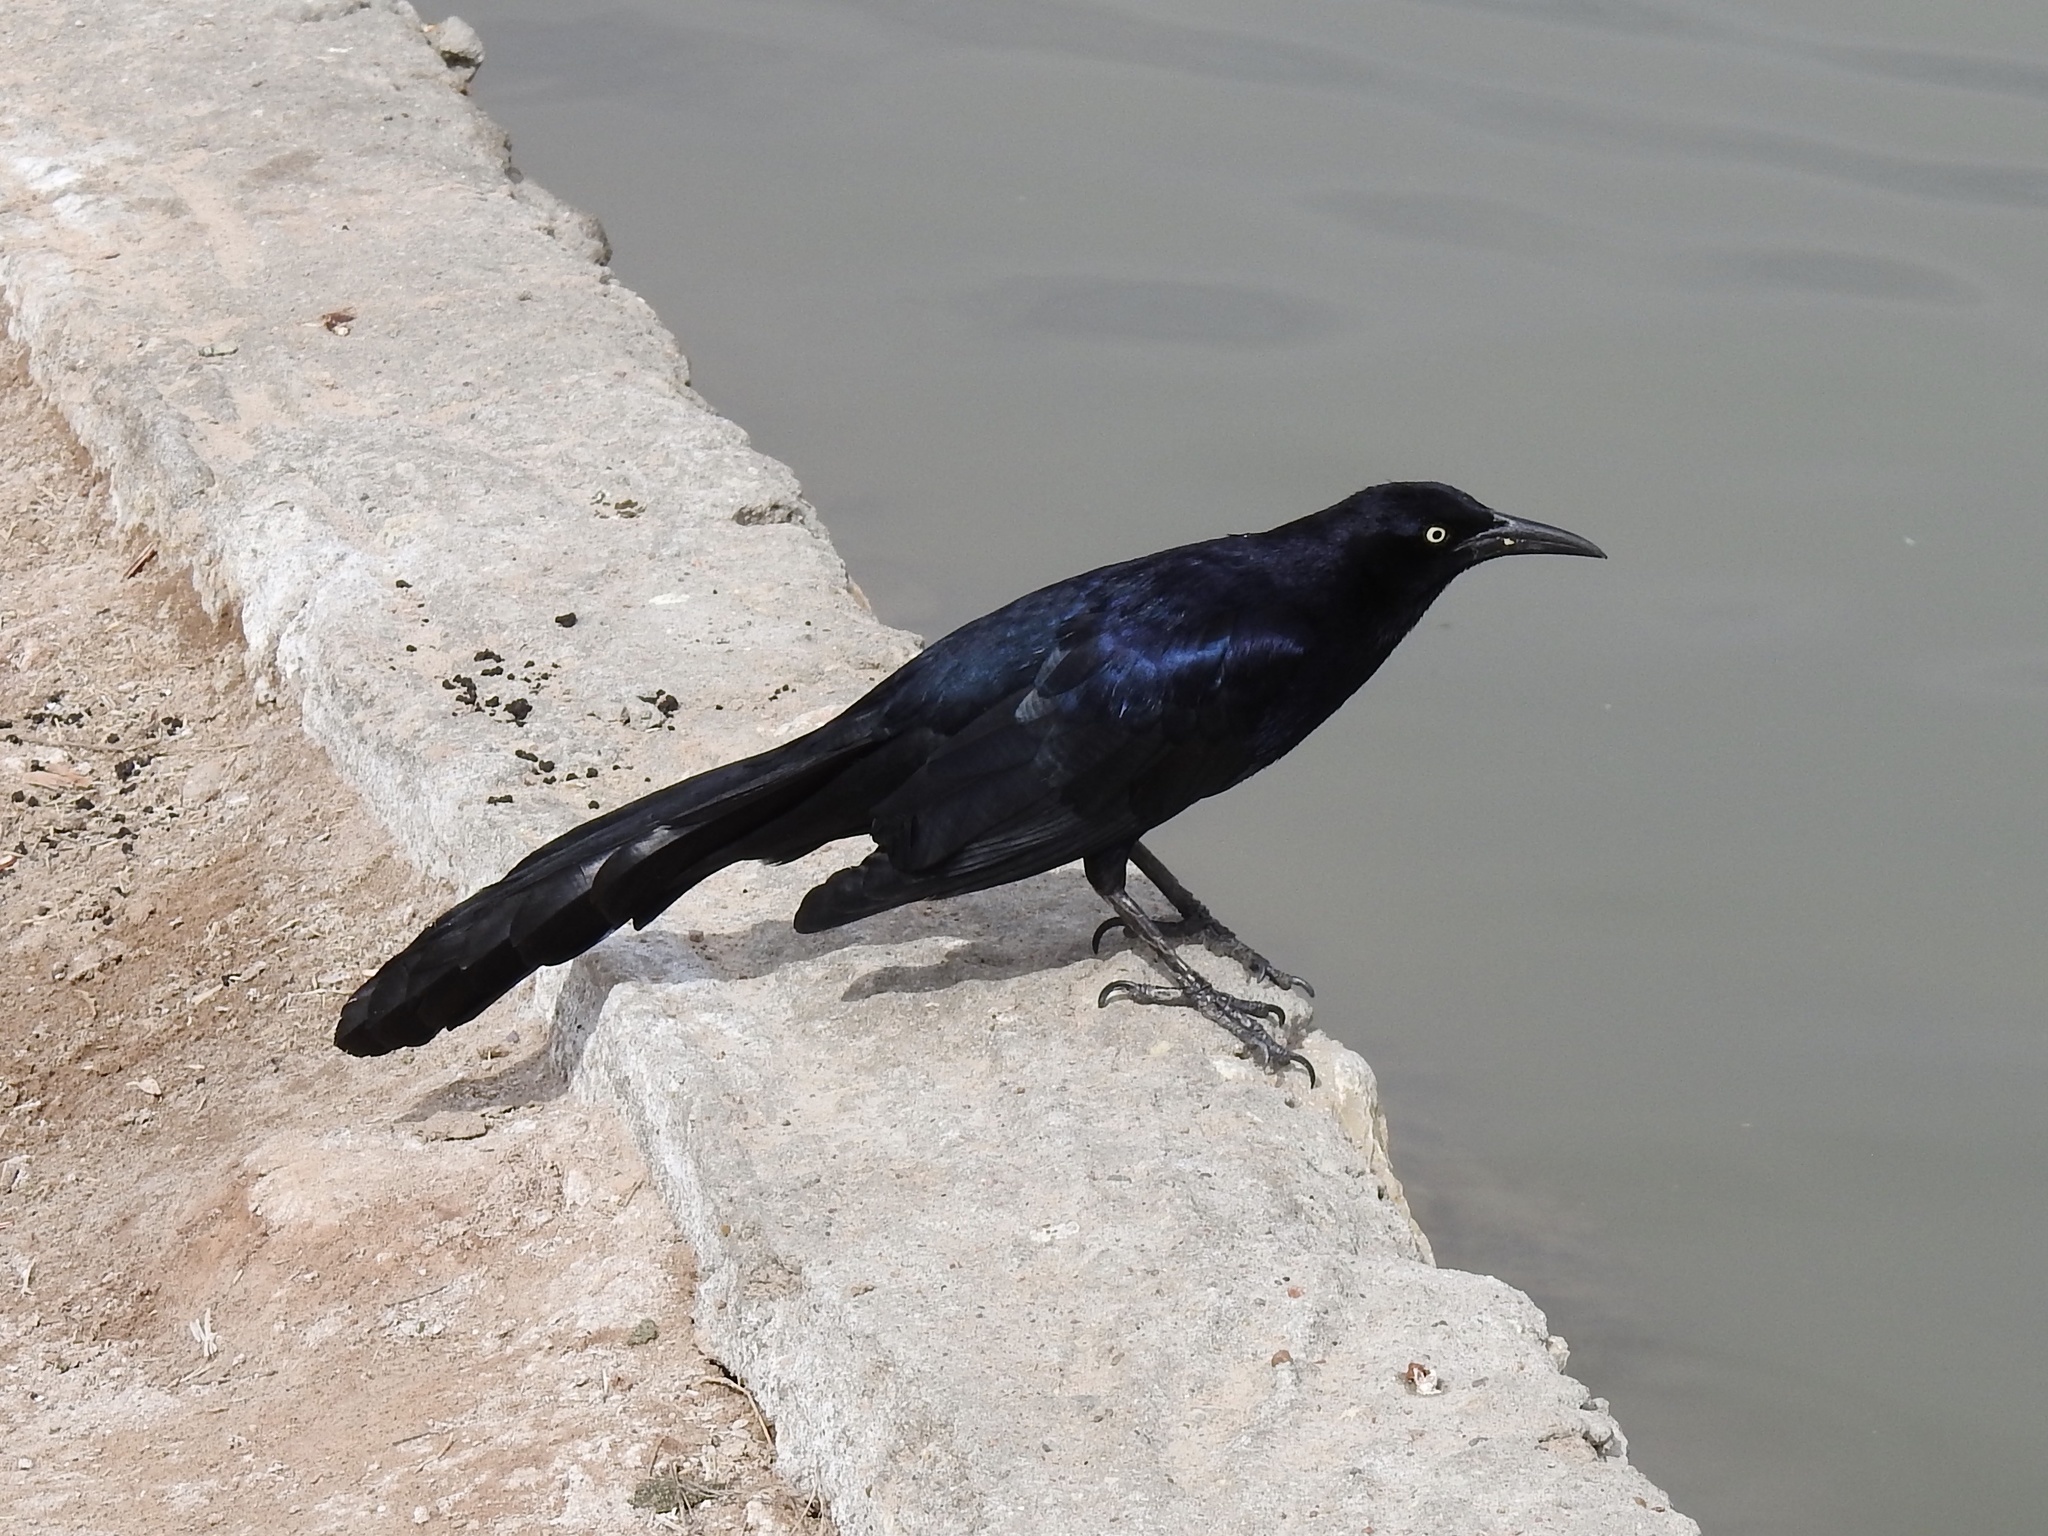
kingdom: Animalia
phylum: Chordata
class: Aves
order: Passeriformes
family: Icteridae
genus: Quiscalus
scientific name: Quiscalus mexicanus
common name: Great-tailed grackle
